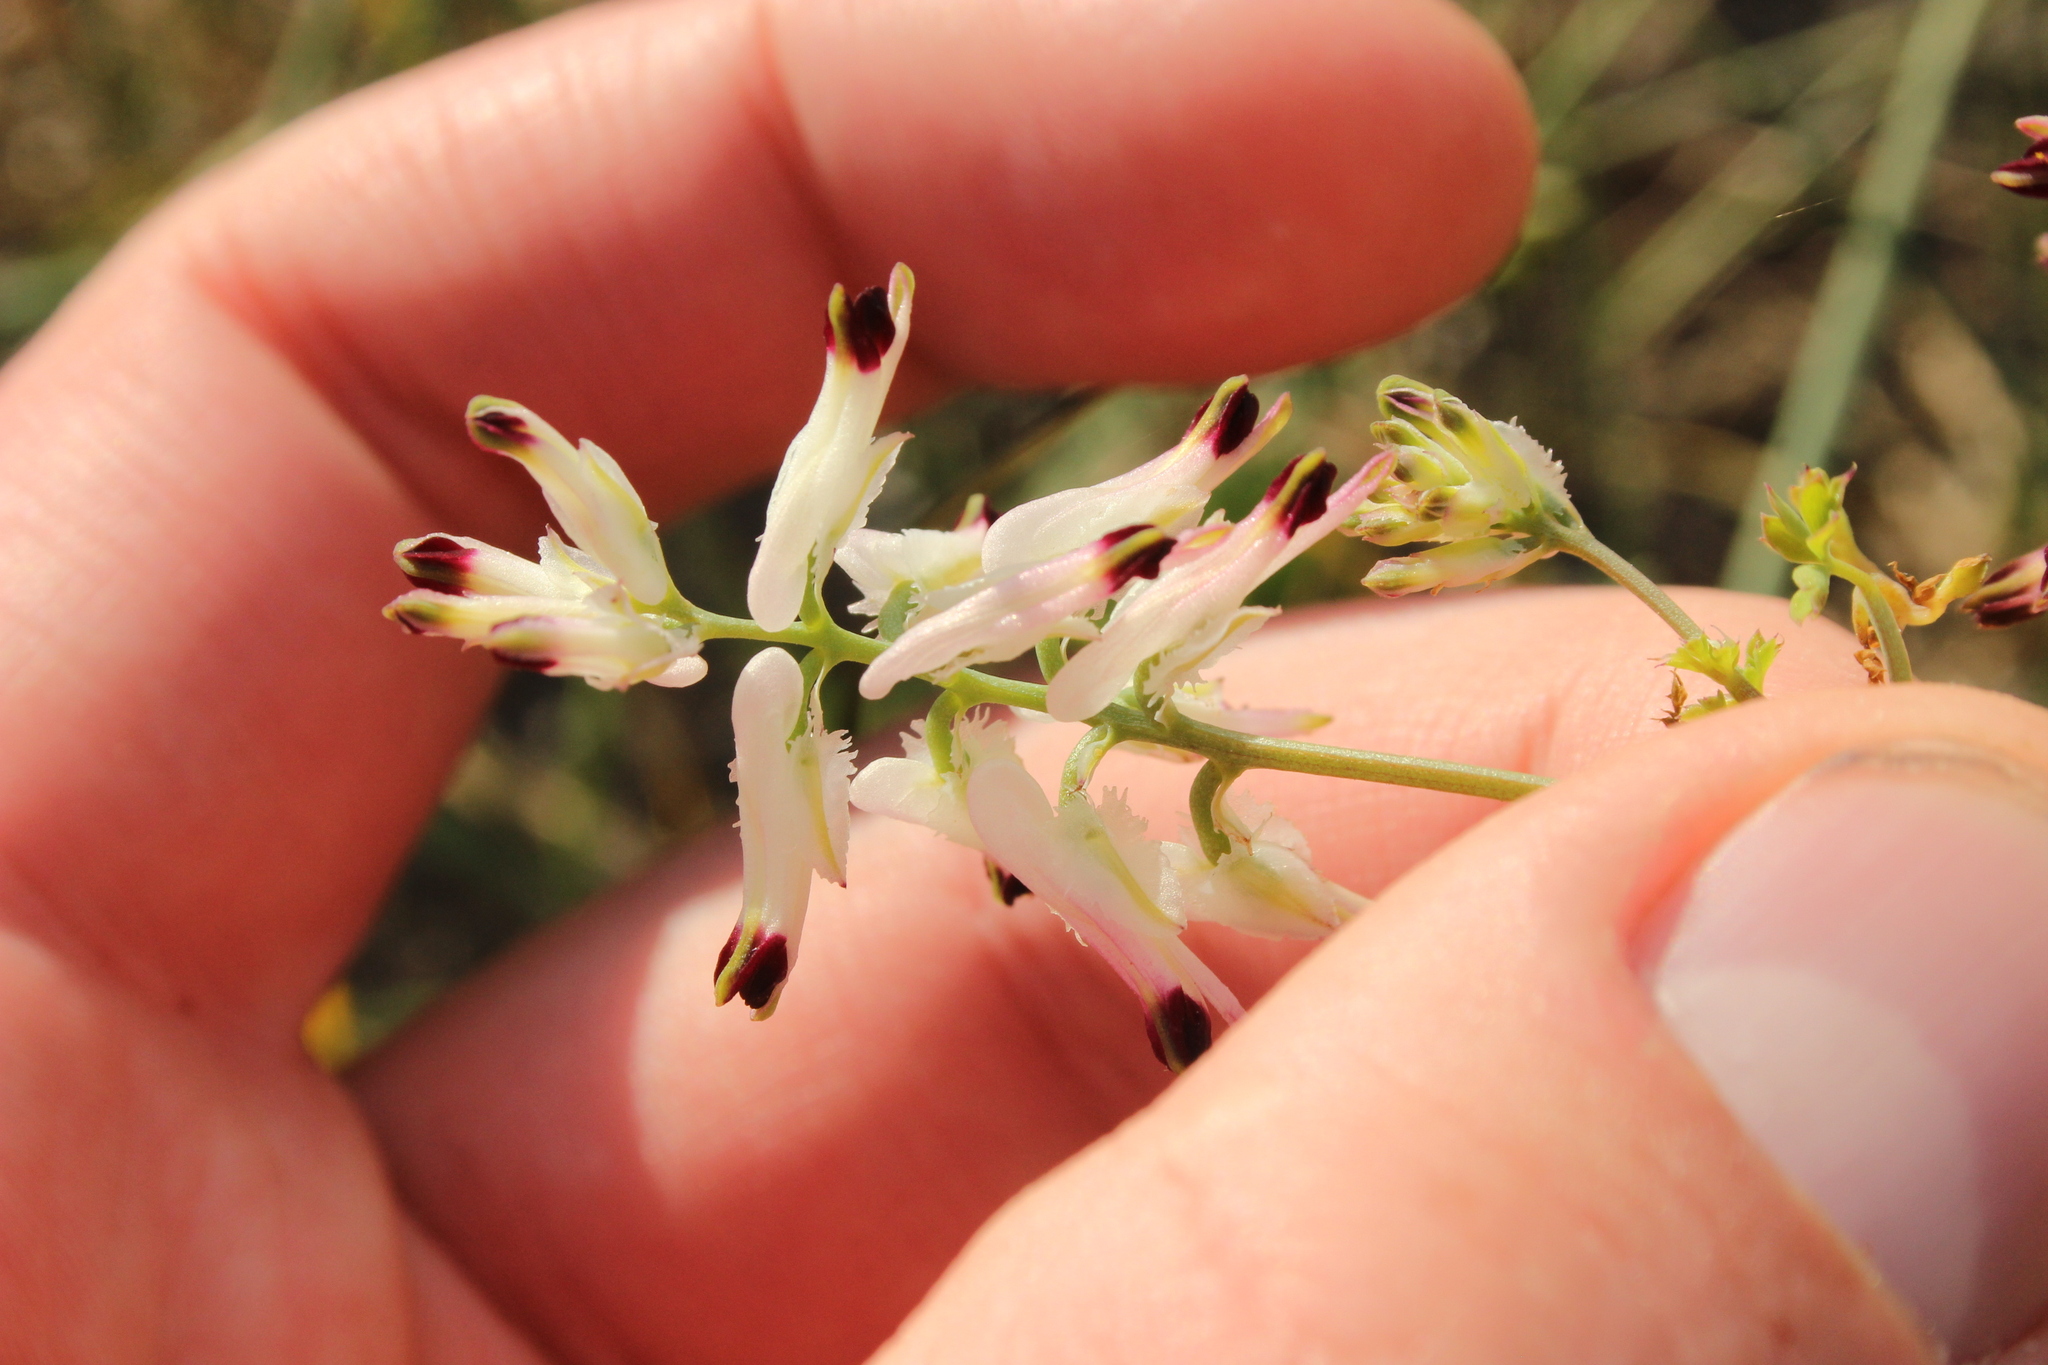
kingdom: Plantae
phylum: Tracheophyta
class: Magnoliopsida
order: Ranunculales
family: Papaveraceae
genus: Fumaria
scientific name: Fumaria capreolata
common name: White ramping-fumitory
